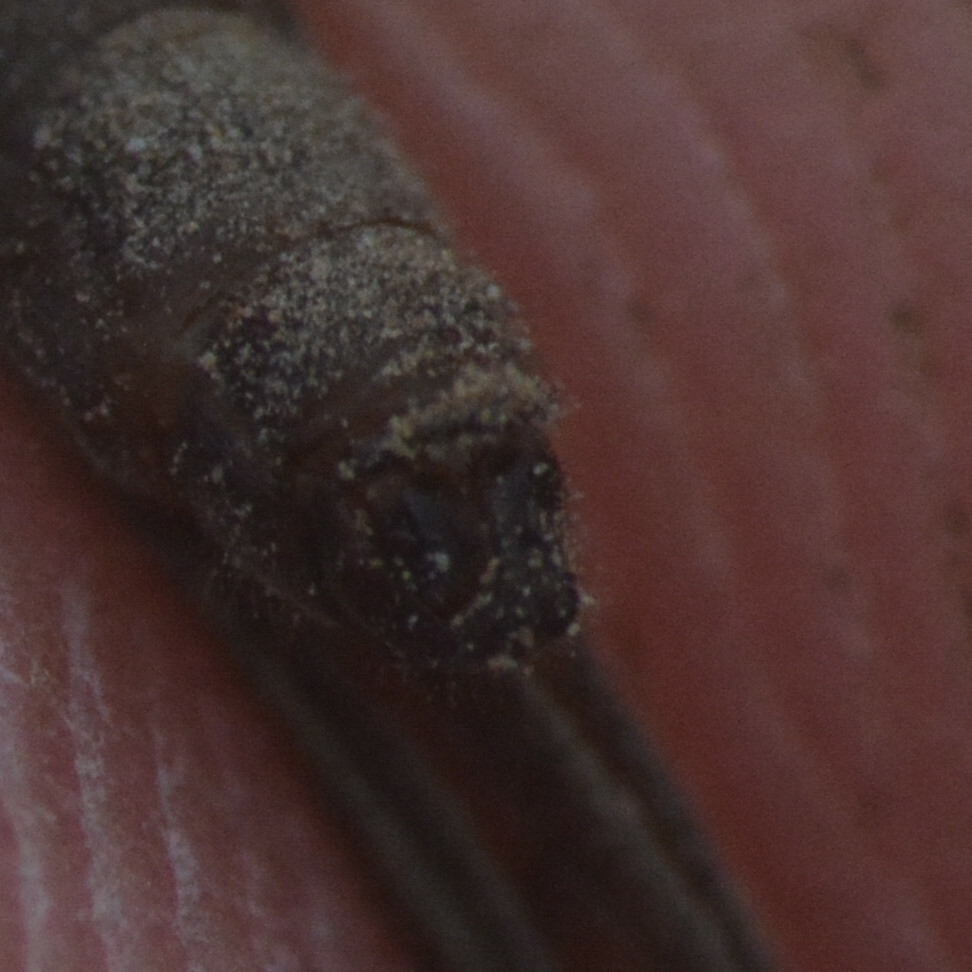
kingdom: Animalia
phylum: Arthropoda
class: Insecta
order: Megaloptera
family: Sialidae
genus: Sialis
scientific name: Sialis fuliginosa
